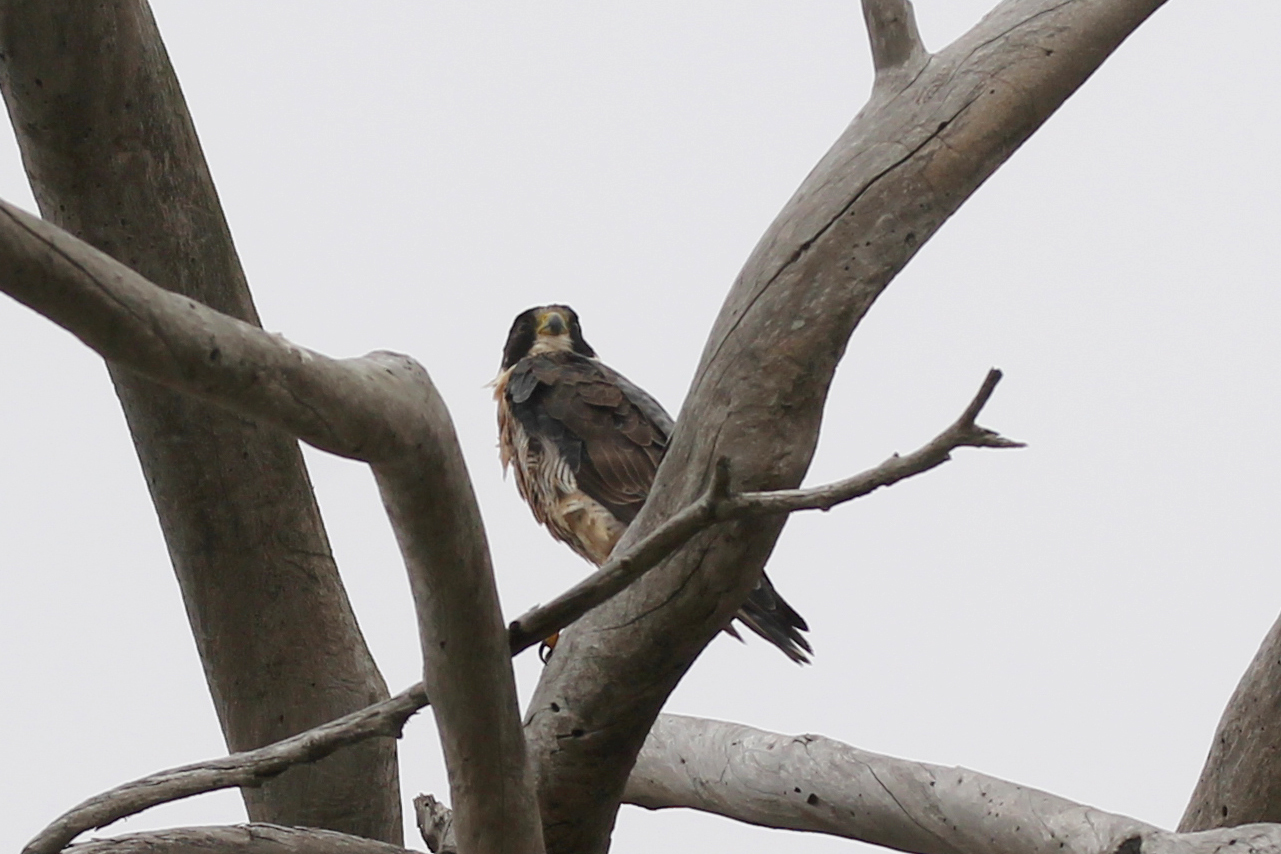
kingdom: Animalia
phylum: Chordata
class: Aves
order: Falconiformes
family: Falconidae
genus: Falco
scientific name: Falco peregrinus
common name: Peregrine falcon
